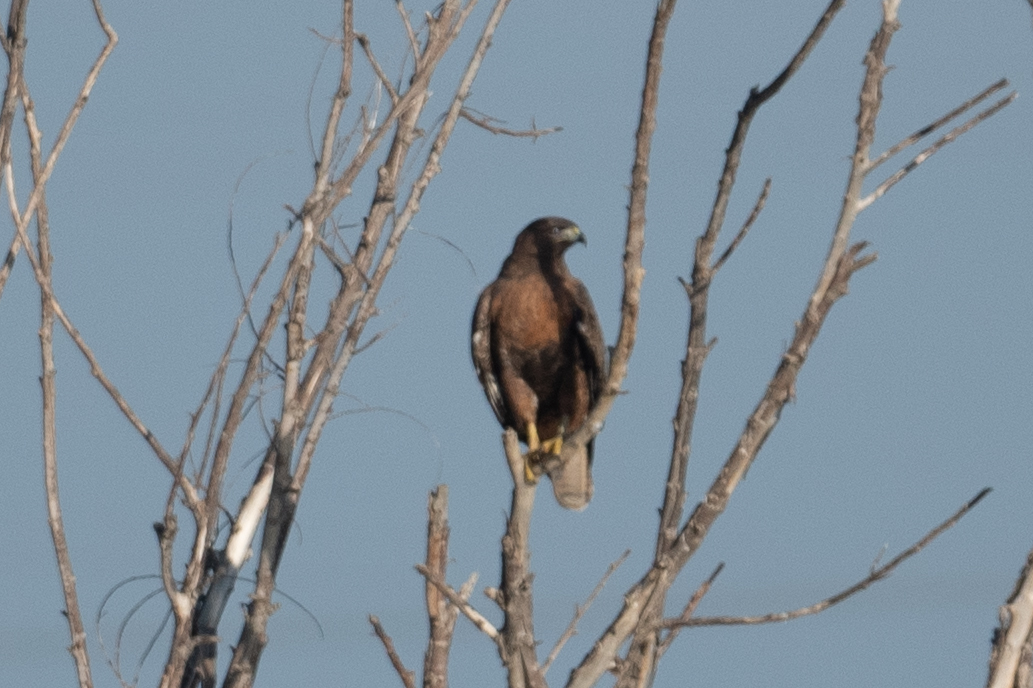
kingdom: Animalia
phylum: Chordata
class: Aves
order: Accipitriformes
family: Accipitridae
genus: Buteo
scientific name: Buteo jamaicensis
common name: Red-tailed hawk
